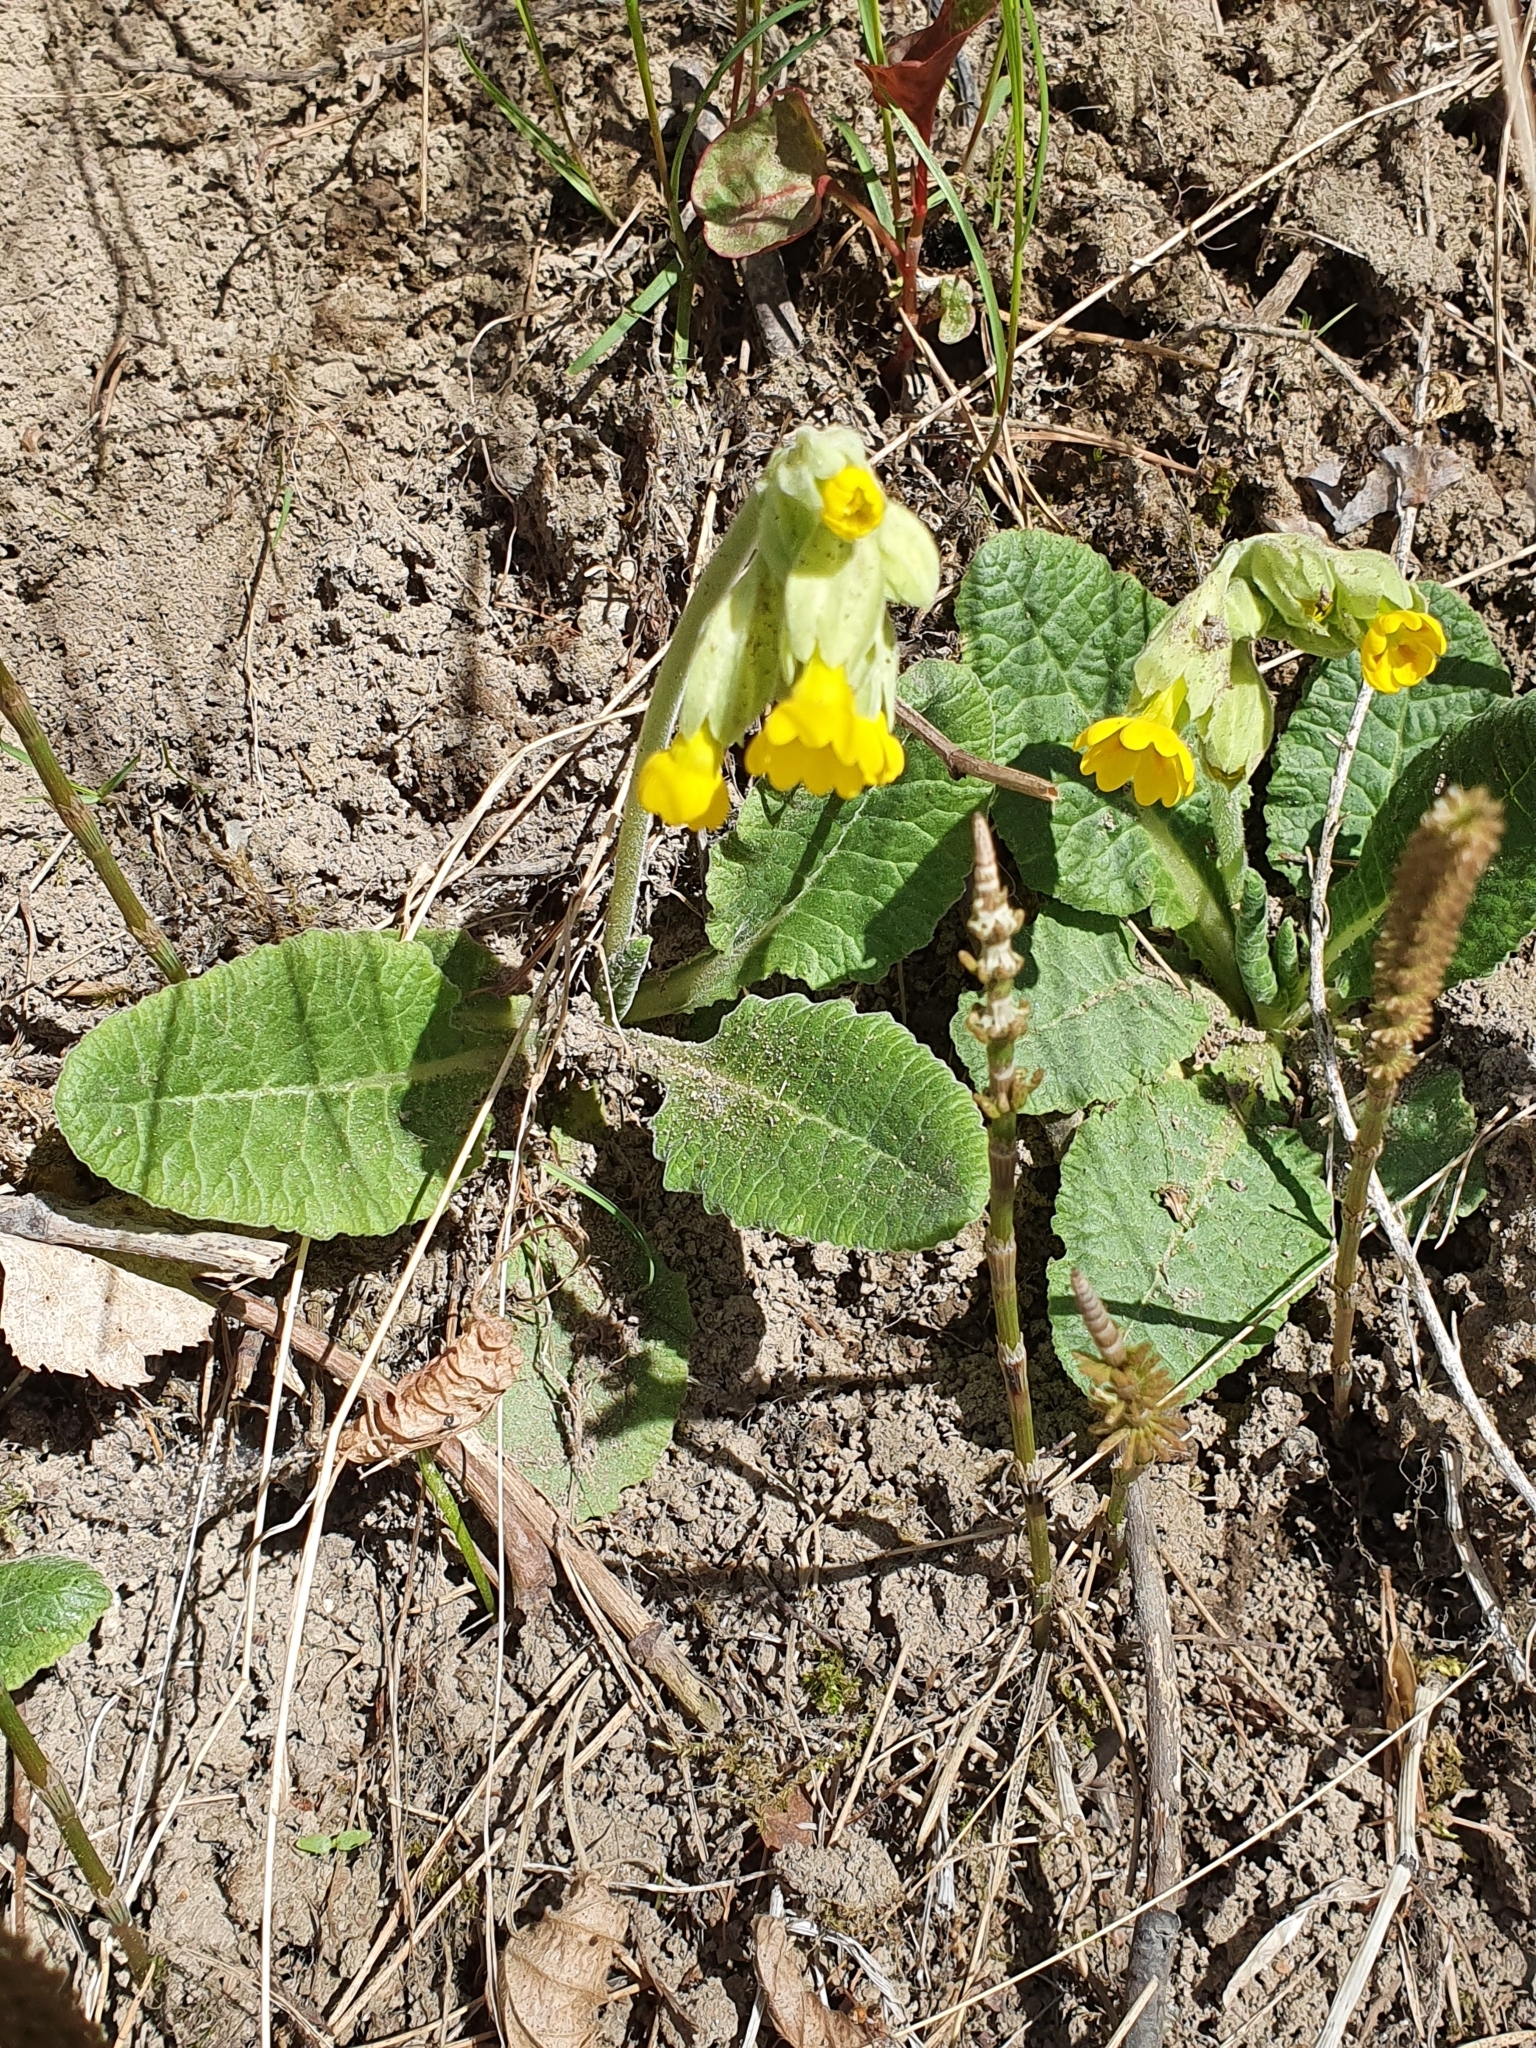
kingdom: Plantae
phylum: Tracheophyta
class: Magnoliopsida
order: Ericales
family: Primulaceae
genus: Primula
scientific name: Primula veris
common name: Cowslip
